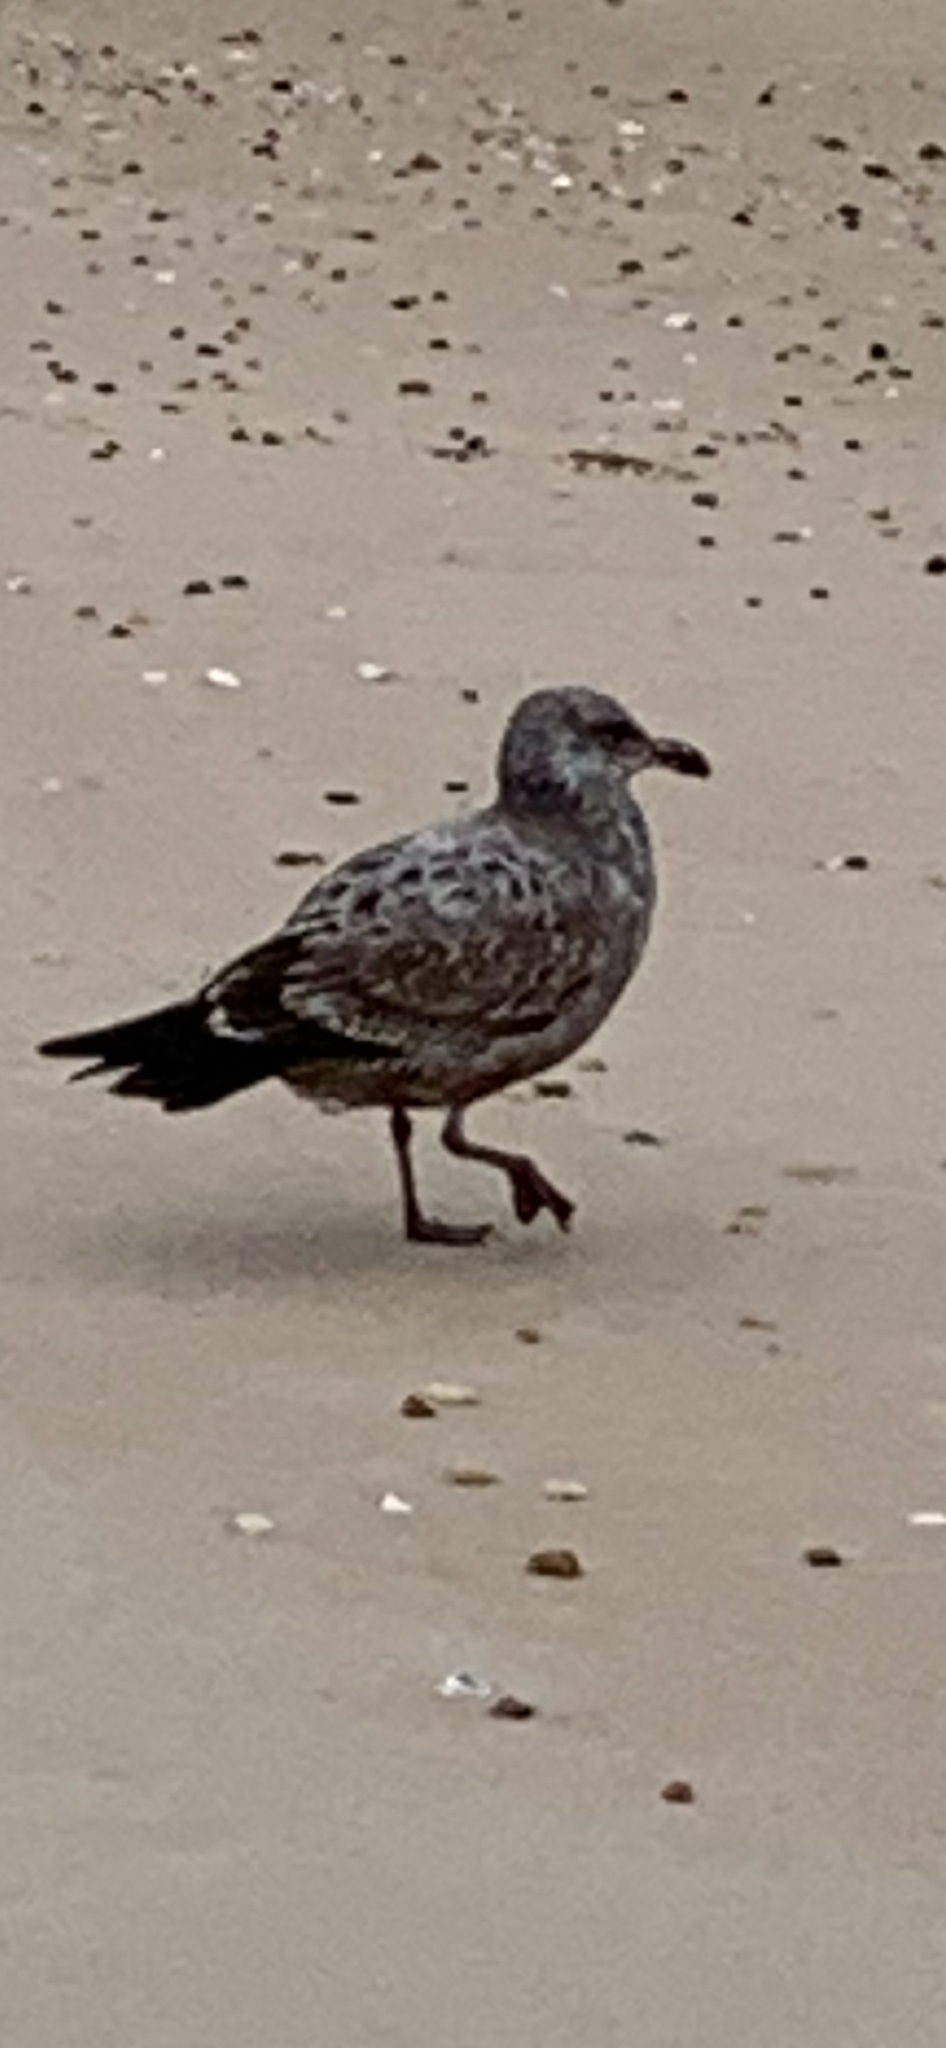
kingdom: Animalia
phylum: Chordata
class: Aves
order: Charadriiformes
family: Laridae
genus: Larus
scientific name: Larus argentatus
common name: Herring gull
